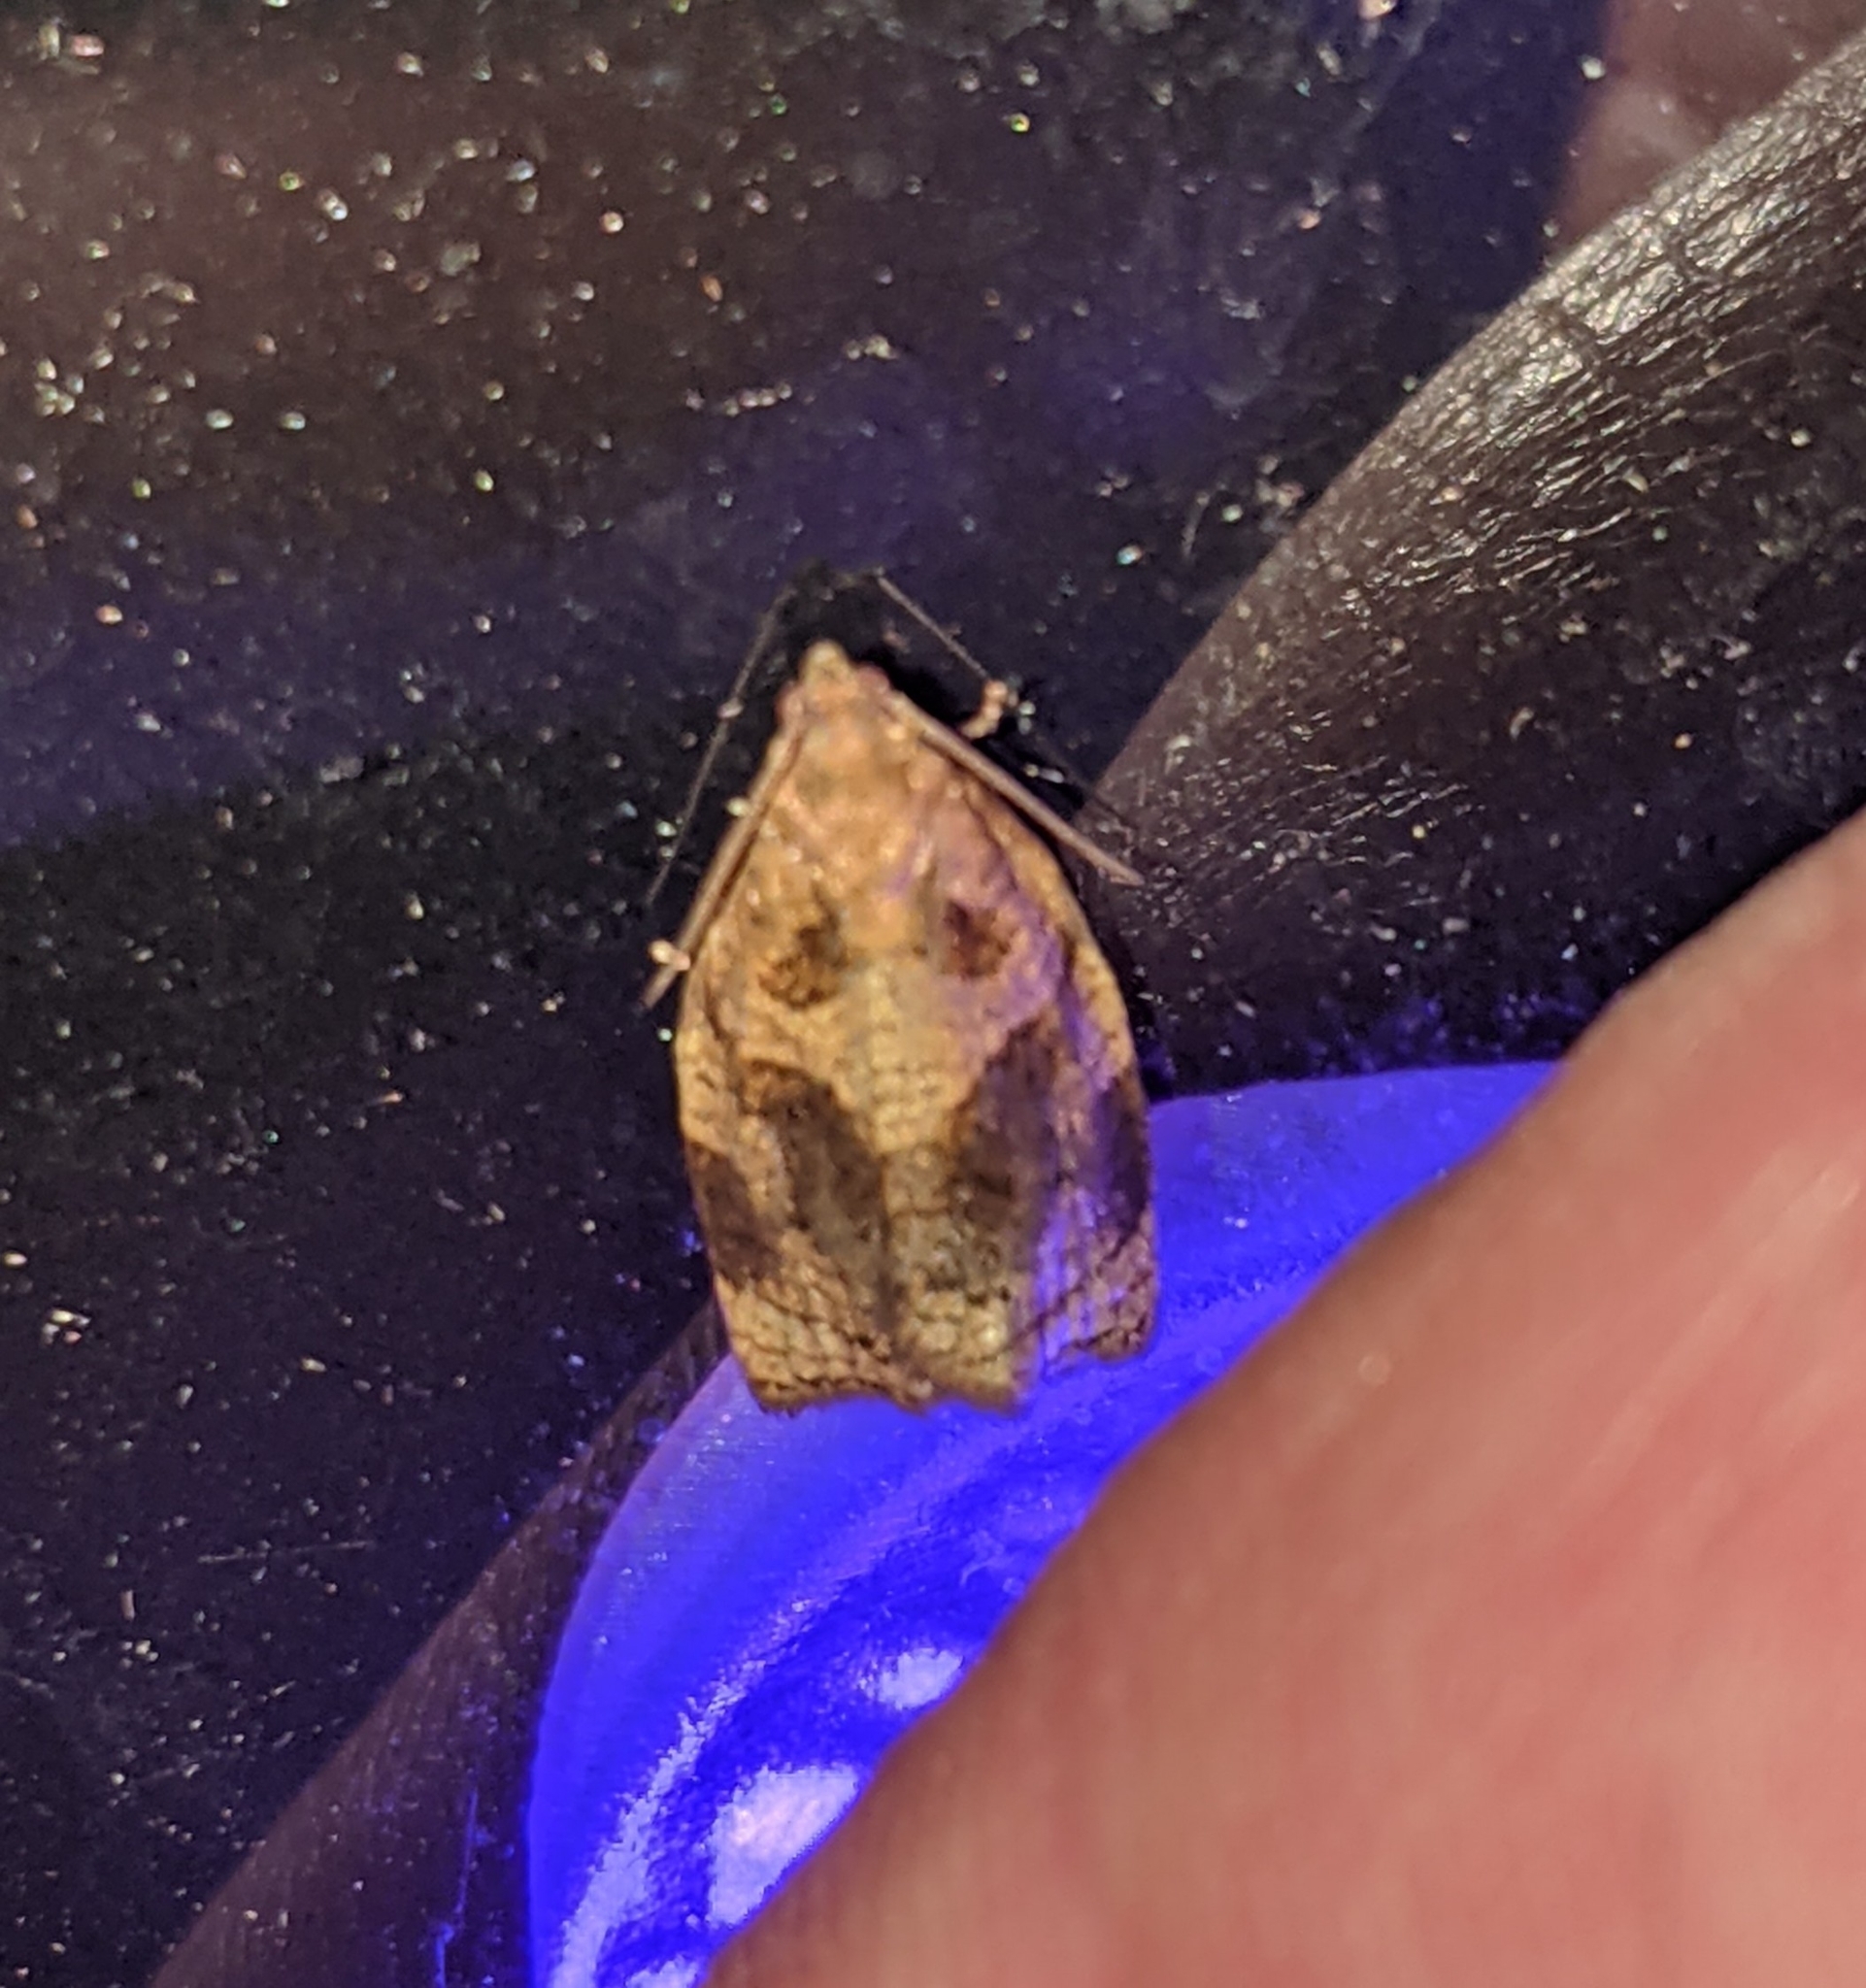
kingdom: Animalia
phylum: Arthropoda
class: Insecta
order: Lepidoptera
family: Tortricidae
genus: Archips
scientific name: Archips rosana
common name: Rose tortrix
